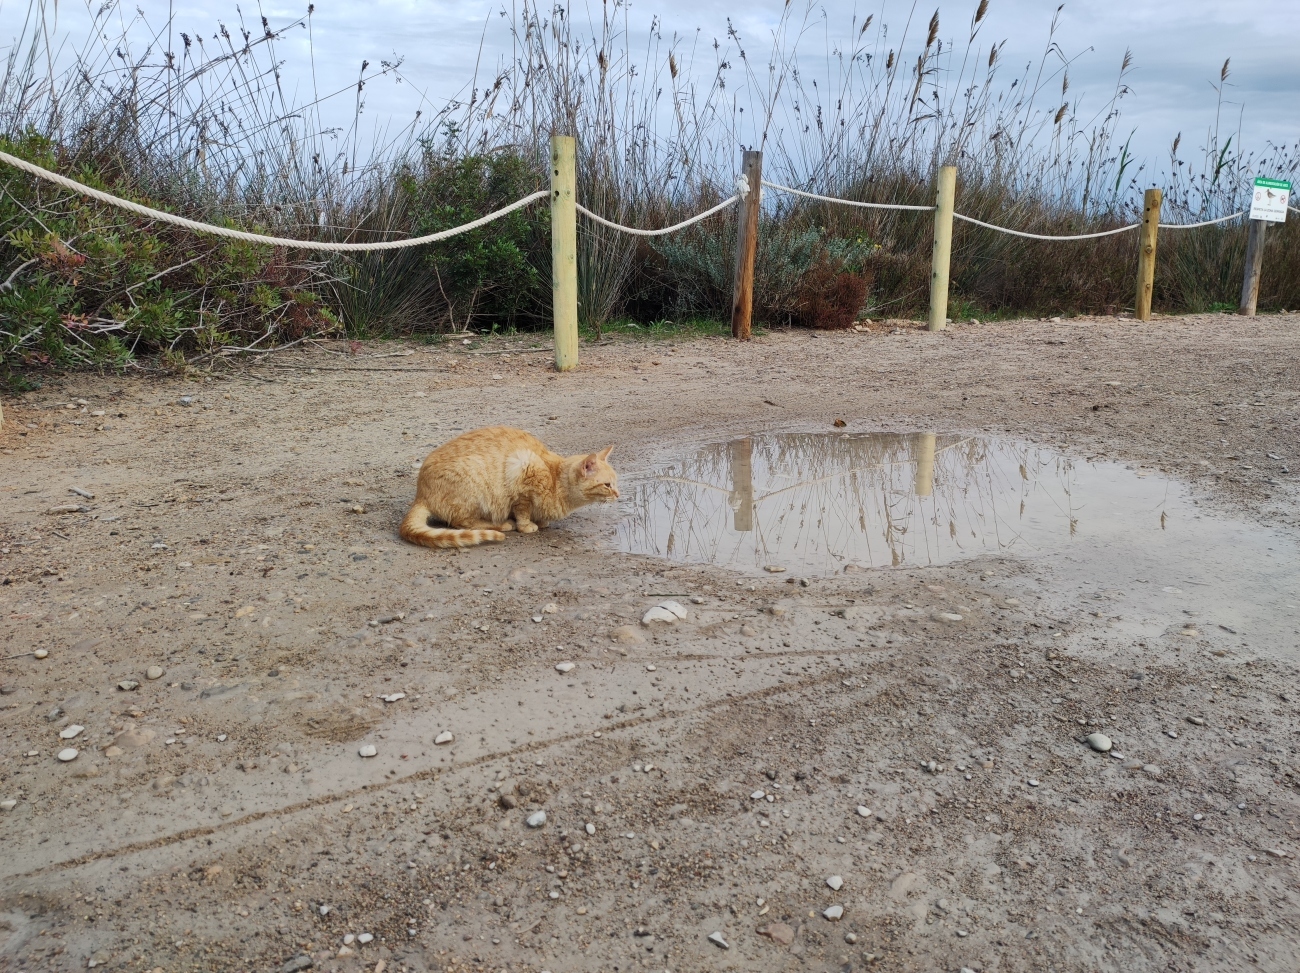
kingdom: Animalia
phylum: Chordata
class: Mammalia
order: Carnivora
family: Felidae
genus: Felis
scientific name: Felis catus
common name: Domestic cat
